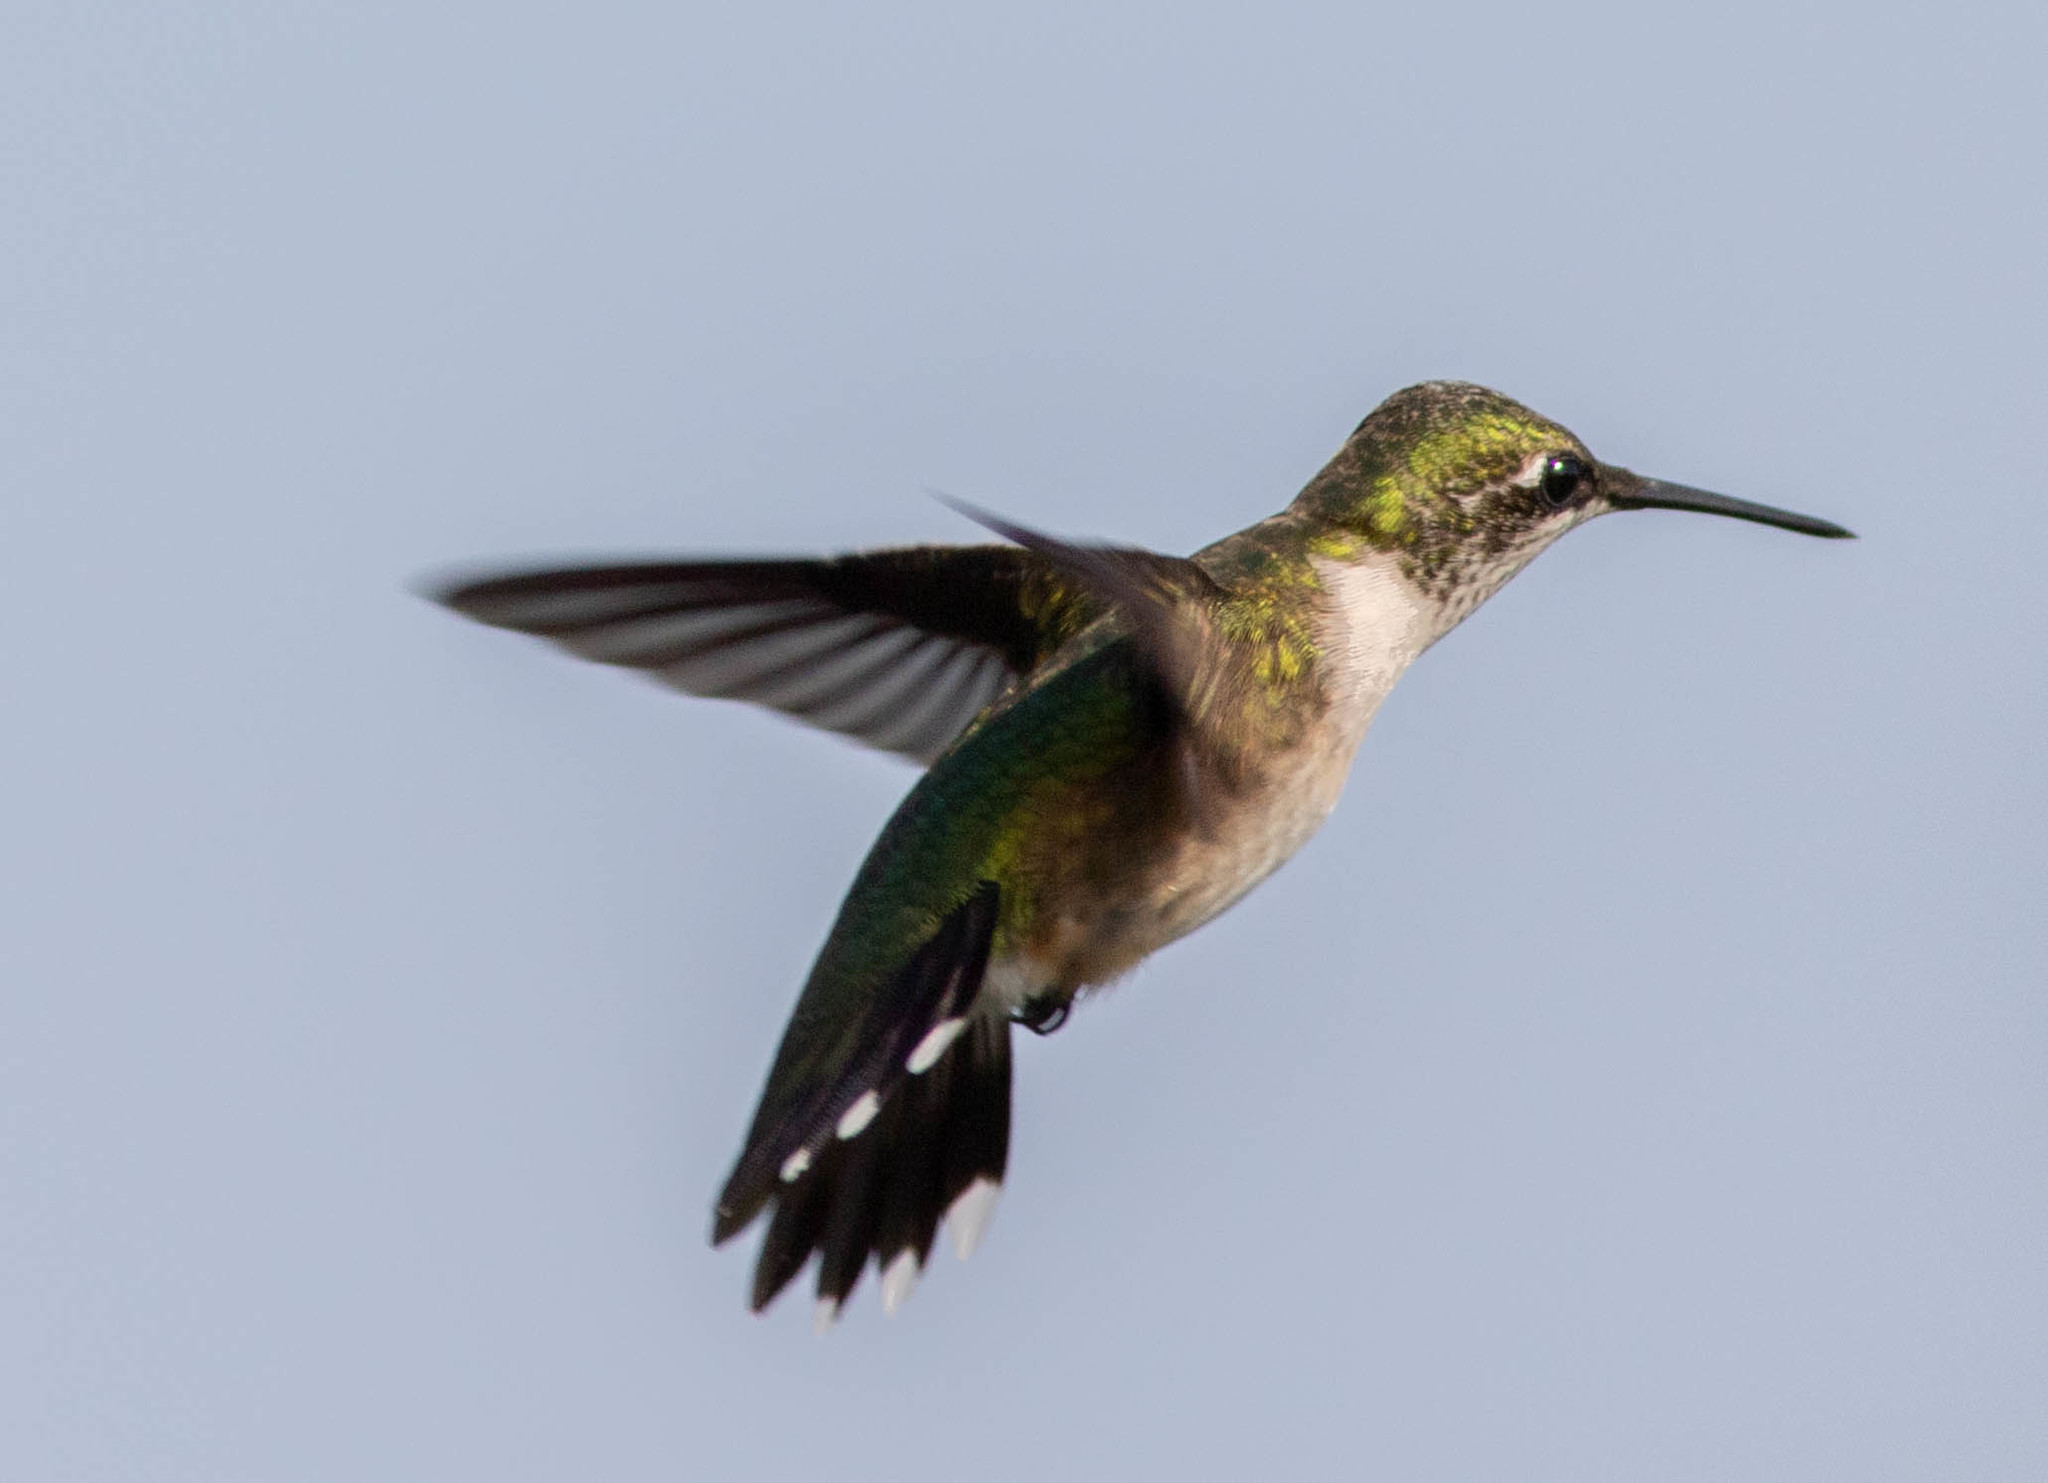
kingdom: Animalia
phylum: Chordata
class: Aves
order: Apodiformes
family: Trochilidae
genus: Archilochus
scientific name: Archilochus colubris
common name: Ruby-throated hummingbird
